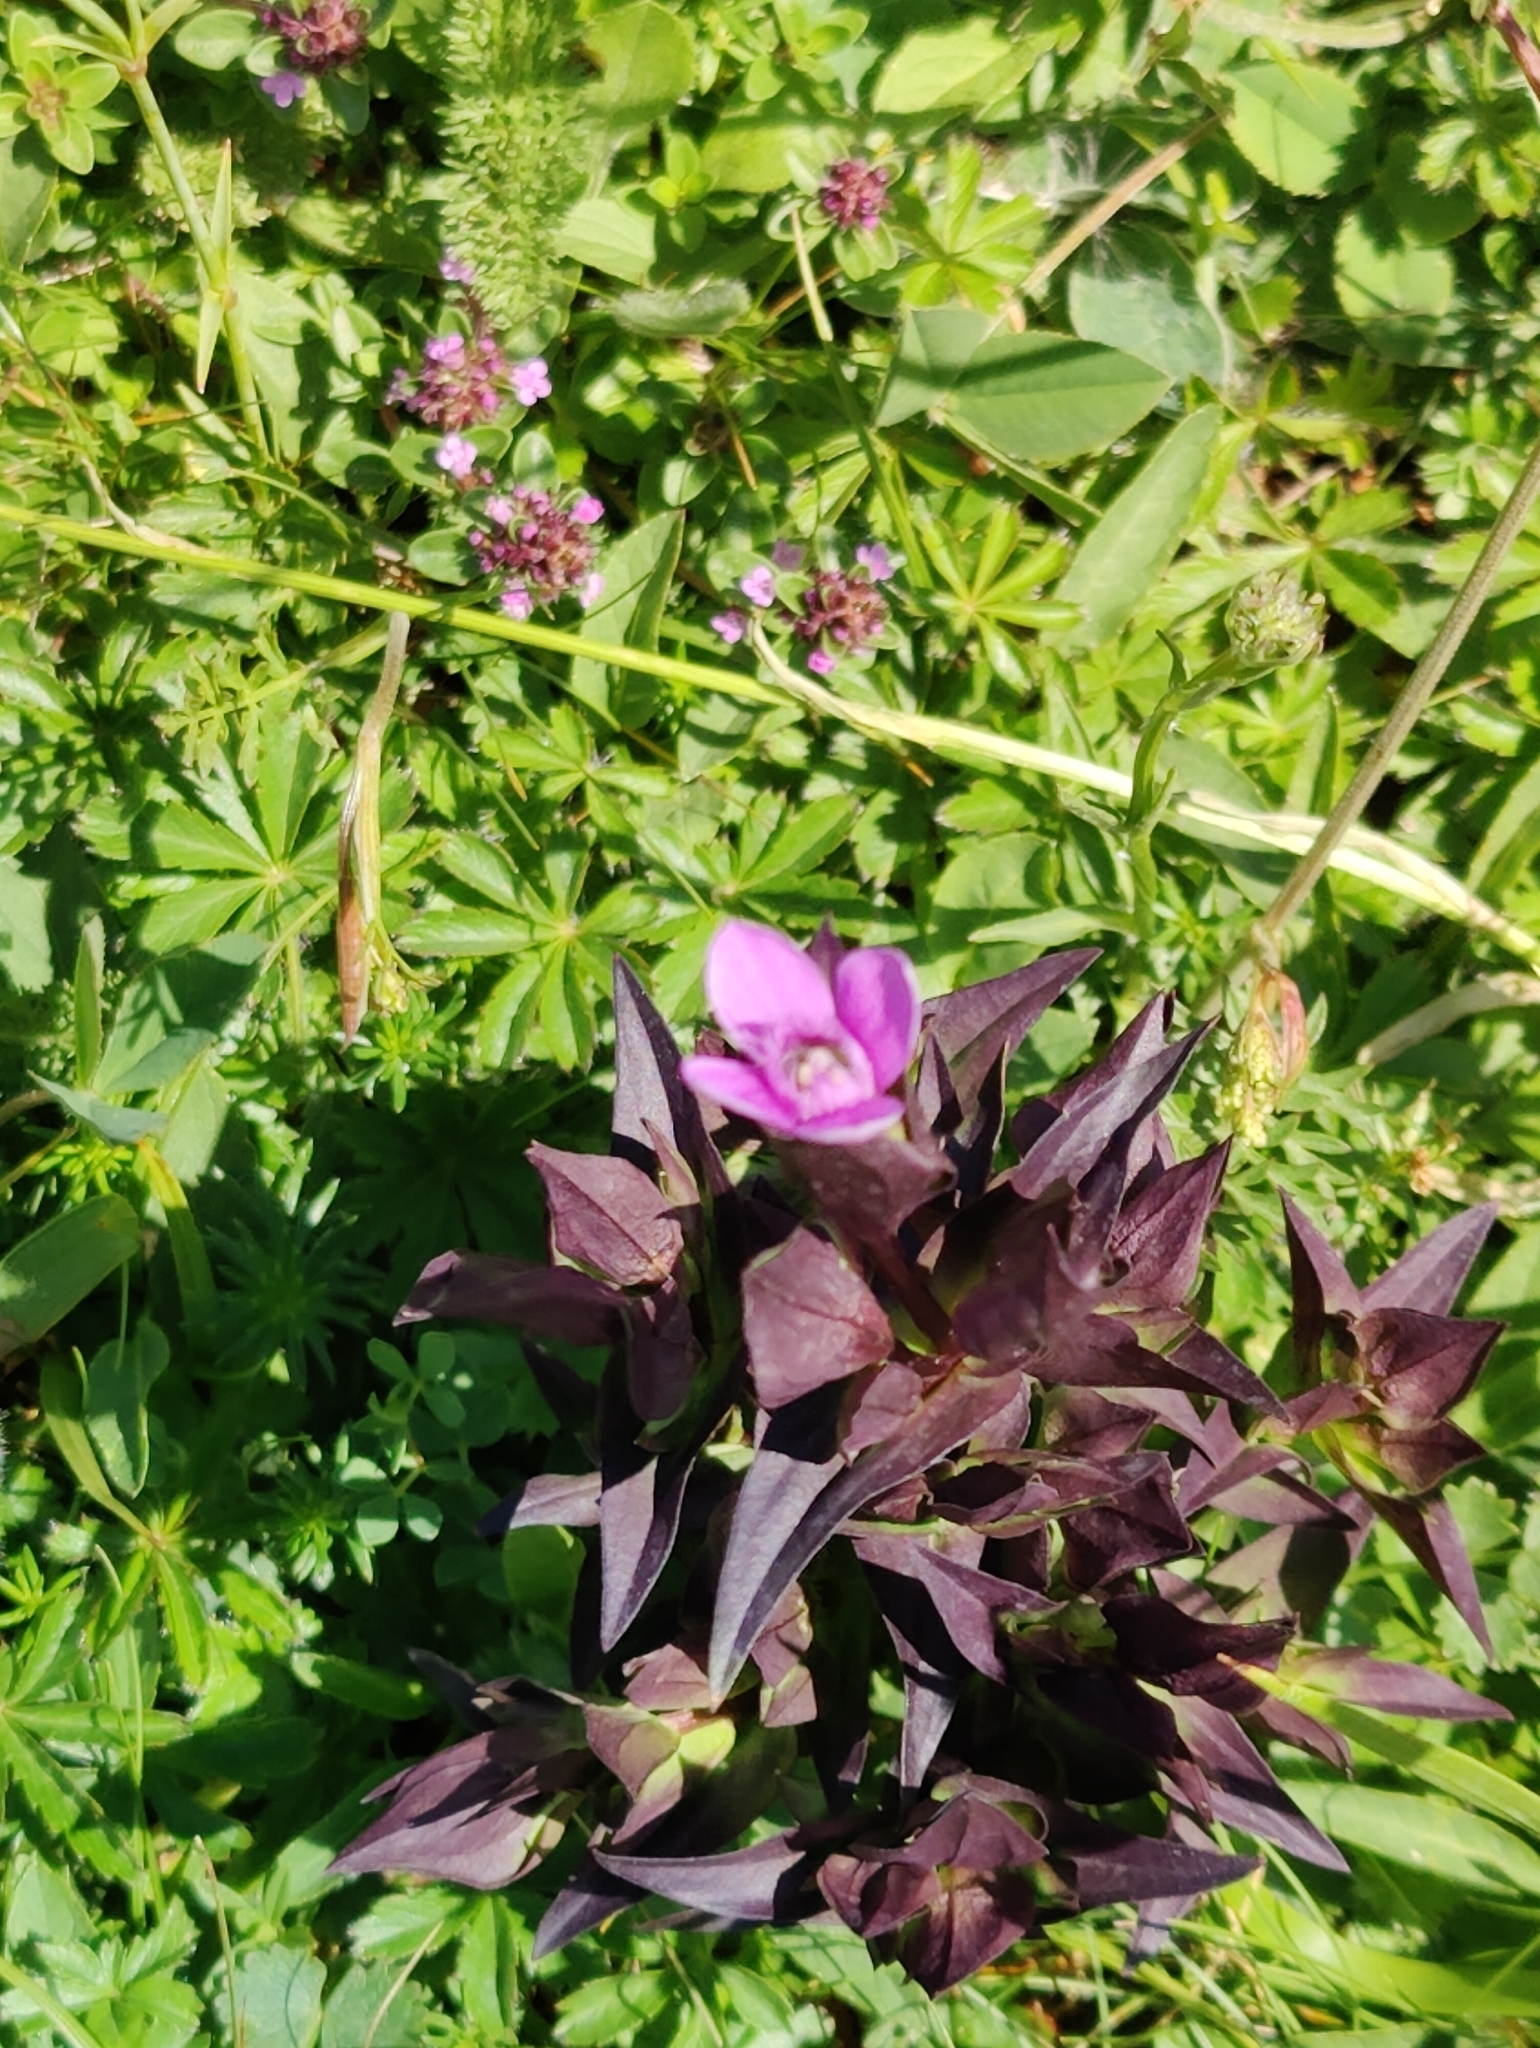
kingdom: Plantae
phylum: Tracheophyta
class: Magnoliopsida
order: Gentianales
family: Gentianaceae
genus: Gentianella
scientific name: Gentianella campestris
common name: Field gentian
